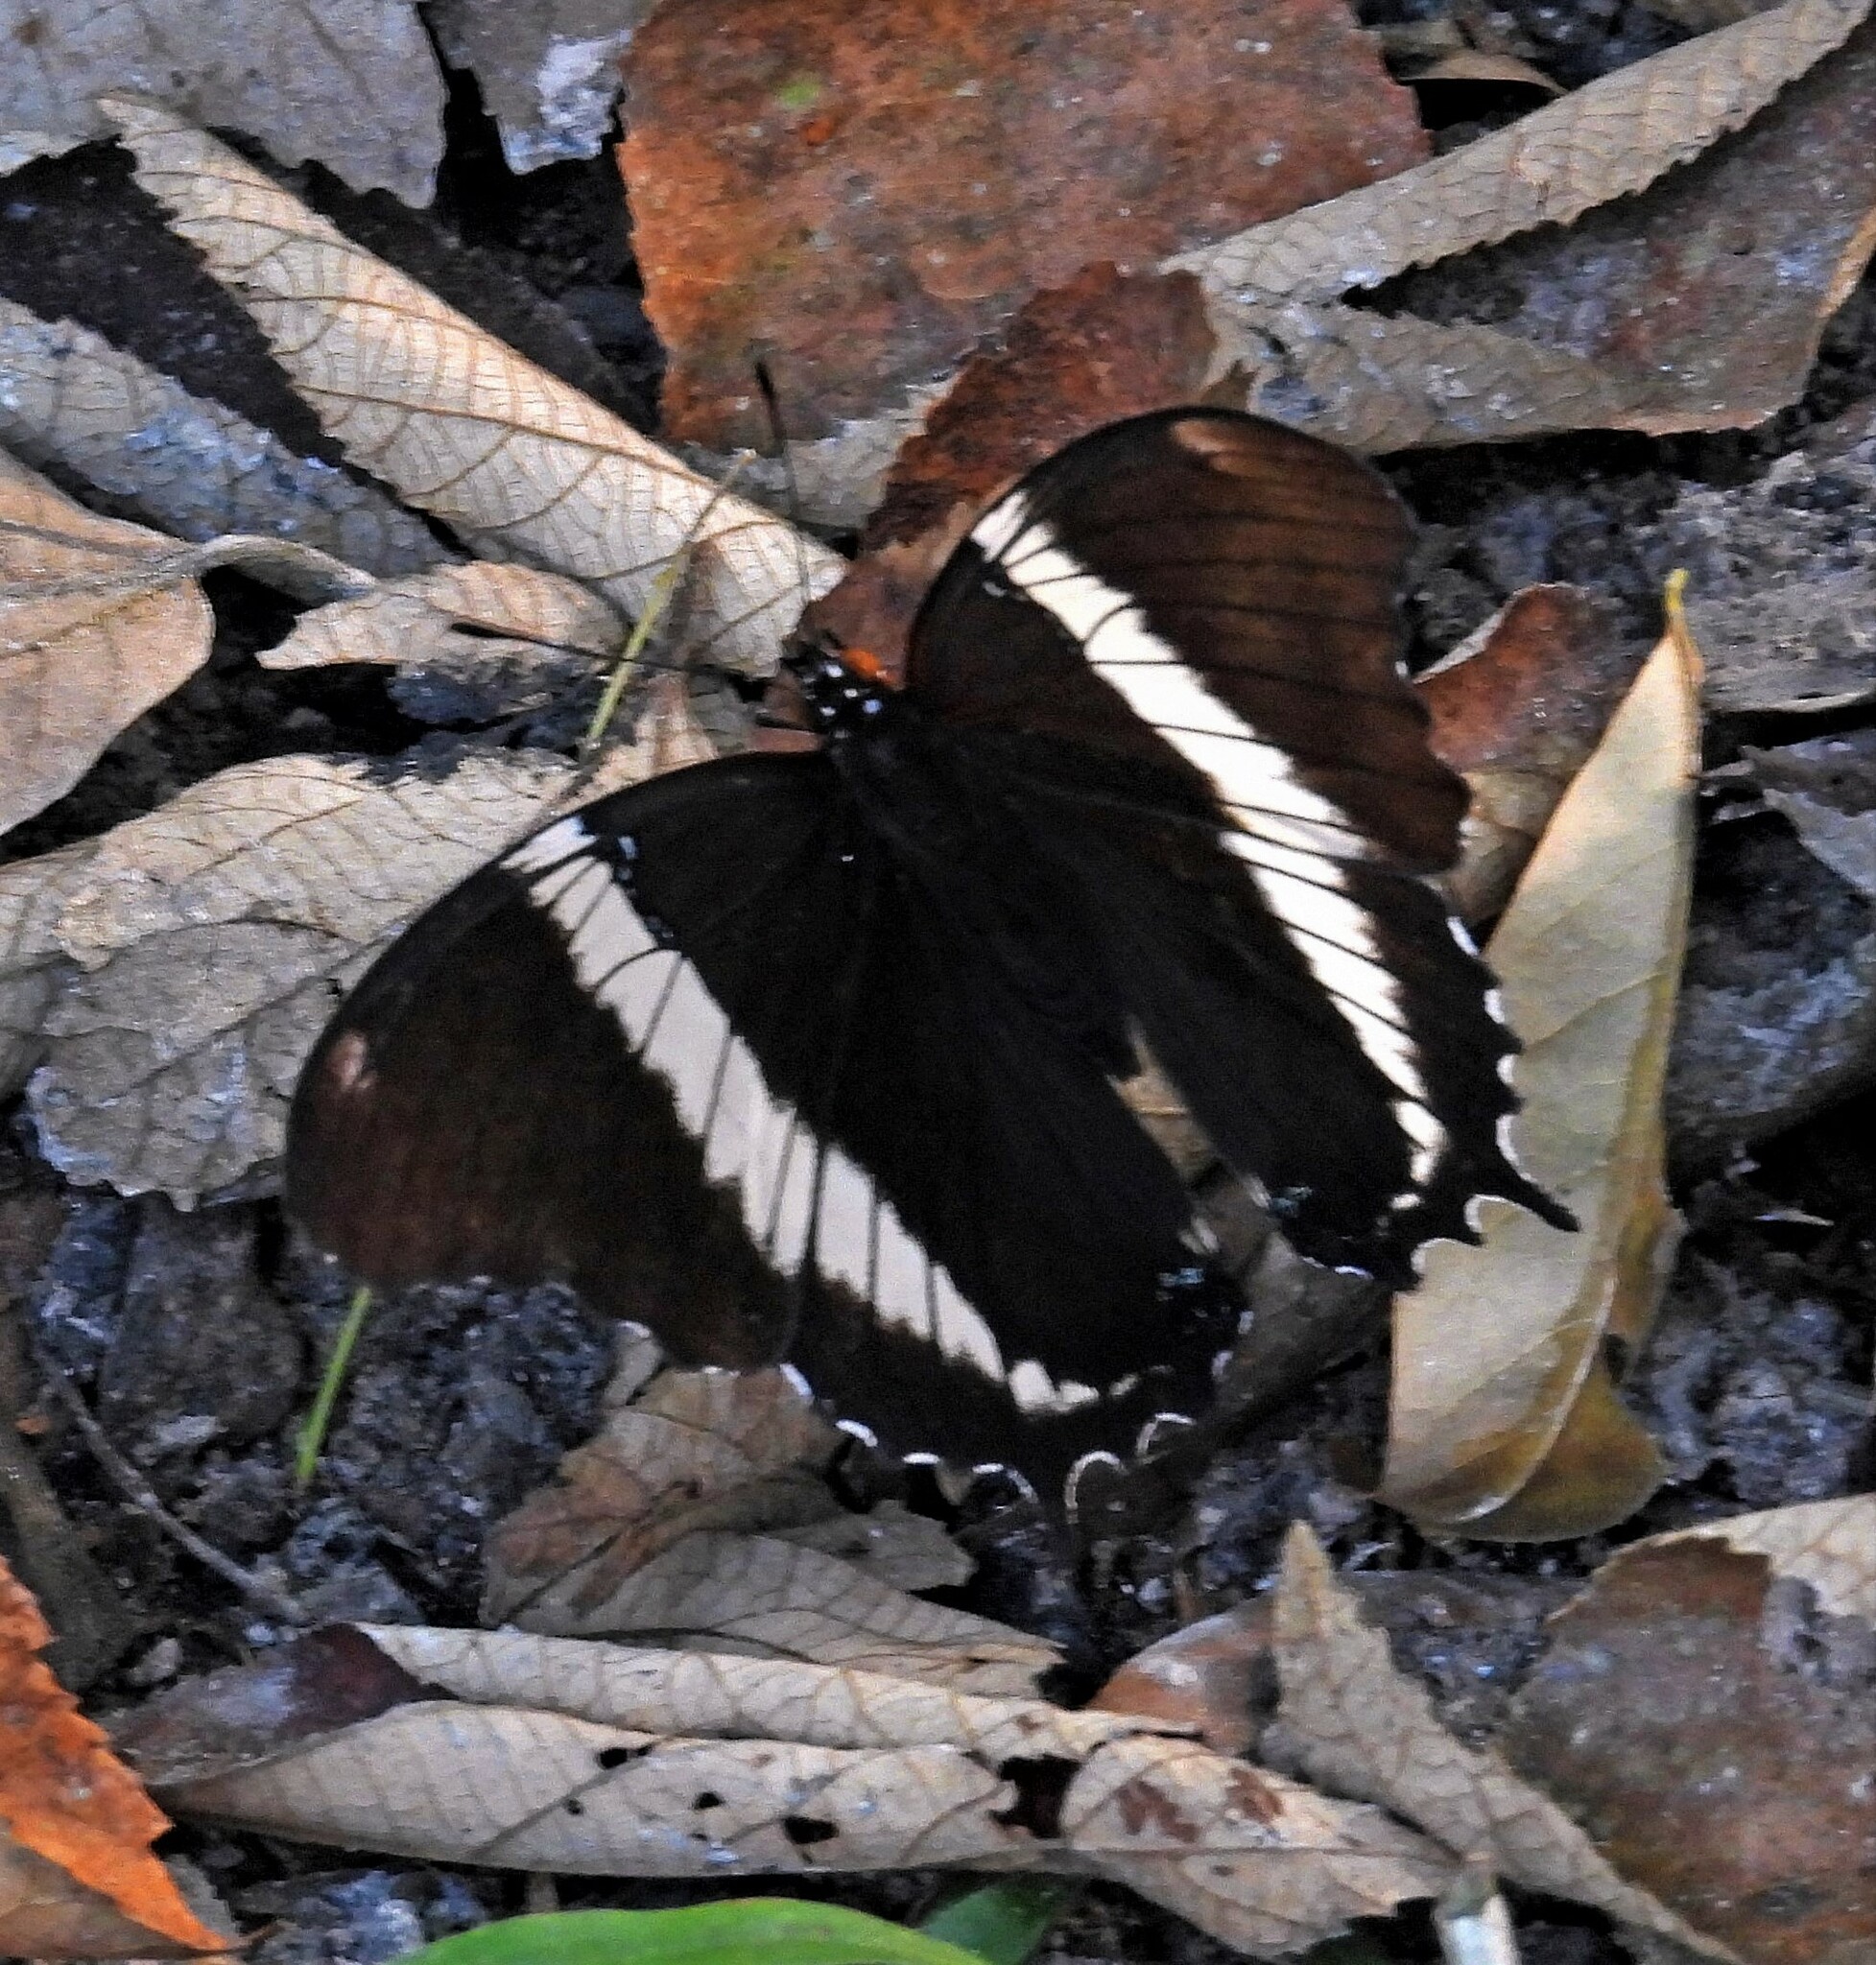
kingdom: Animalia
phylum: Arthropoda
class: Insecta
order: Lepidoptera
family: Nymphalidae
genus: Siproeta
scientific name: Siproeta epaphus
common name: Rusty-tipped page
